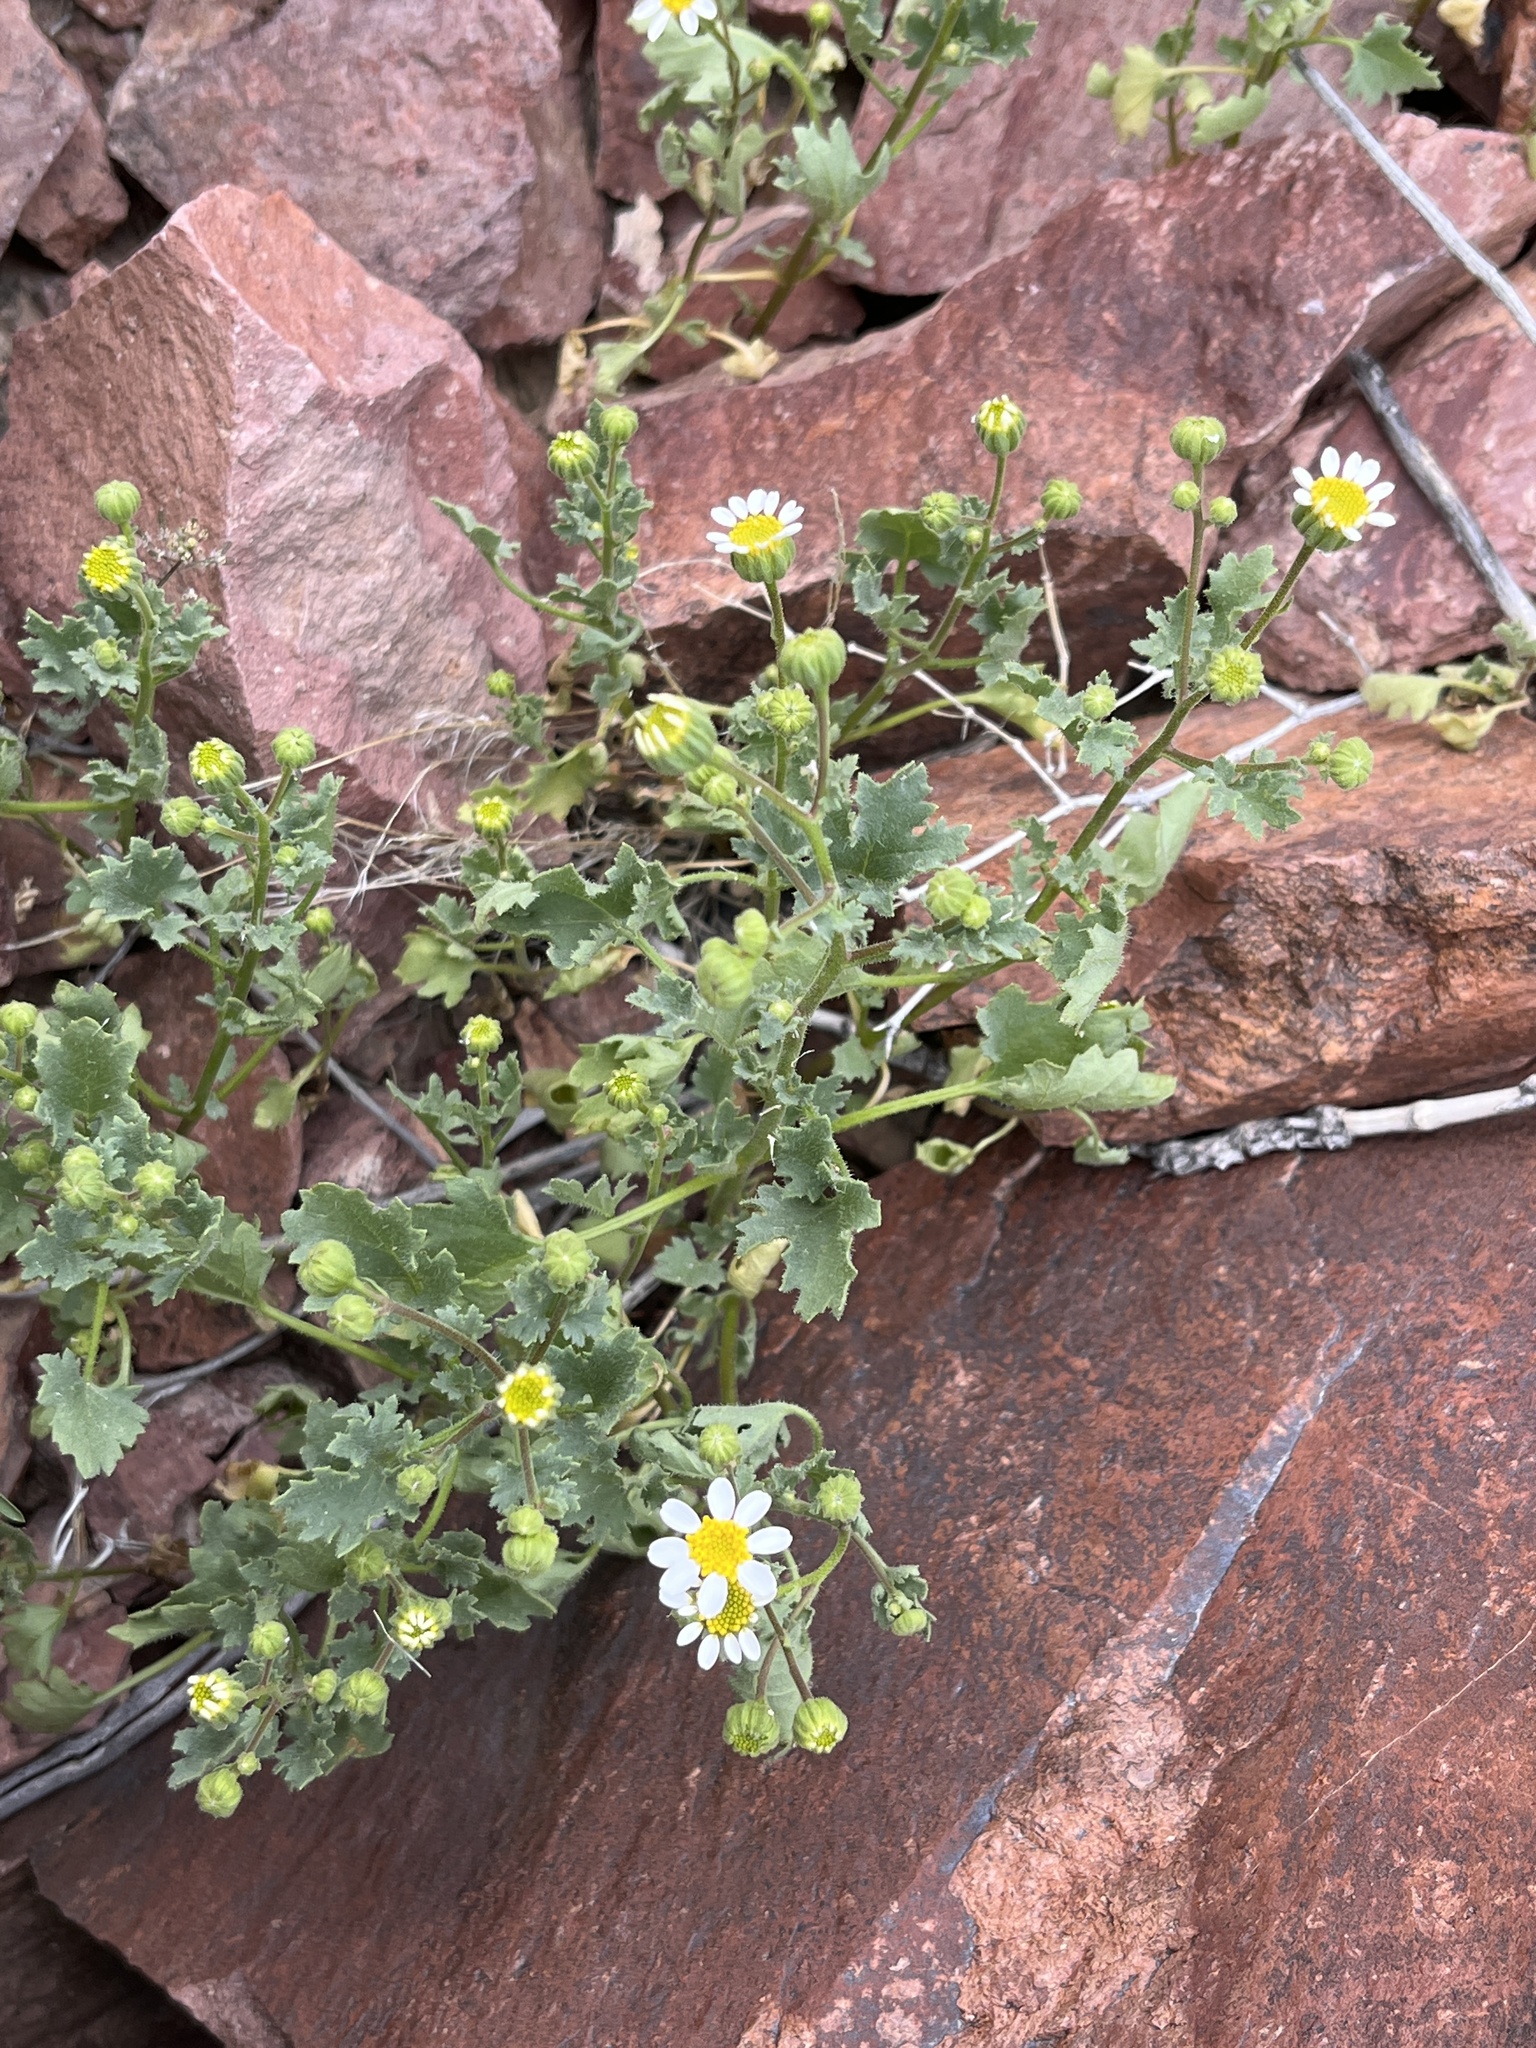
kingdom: Plantae
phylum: Tracheophyta
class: Magnoliopsida
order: Asterales
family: Asteraceae
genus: Laphamia
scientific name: Laphamia emoryi
